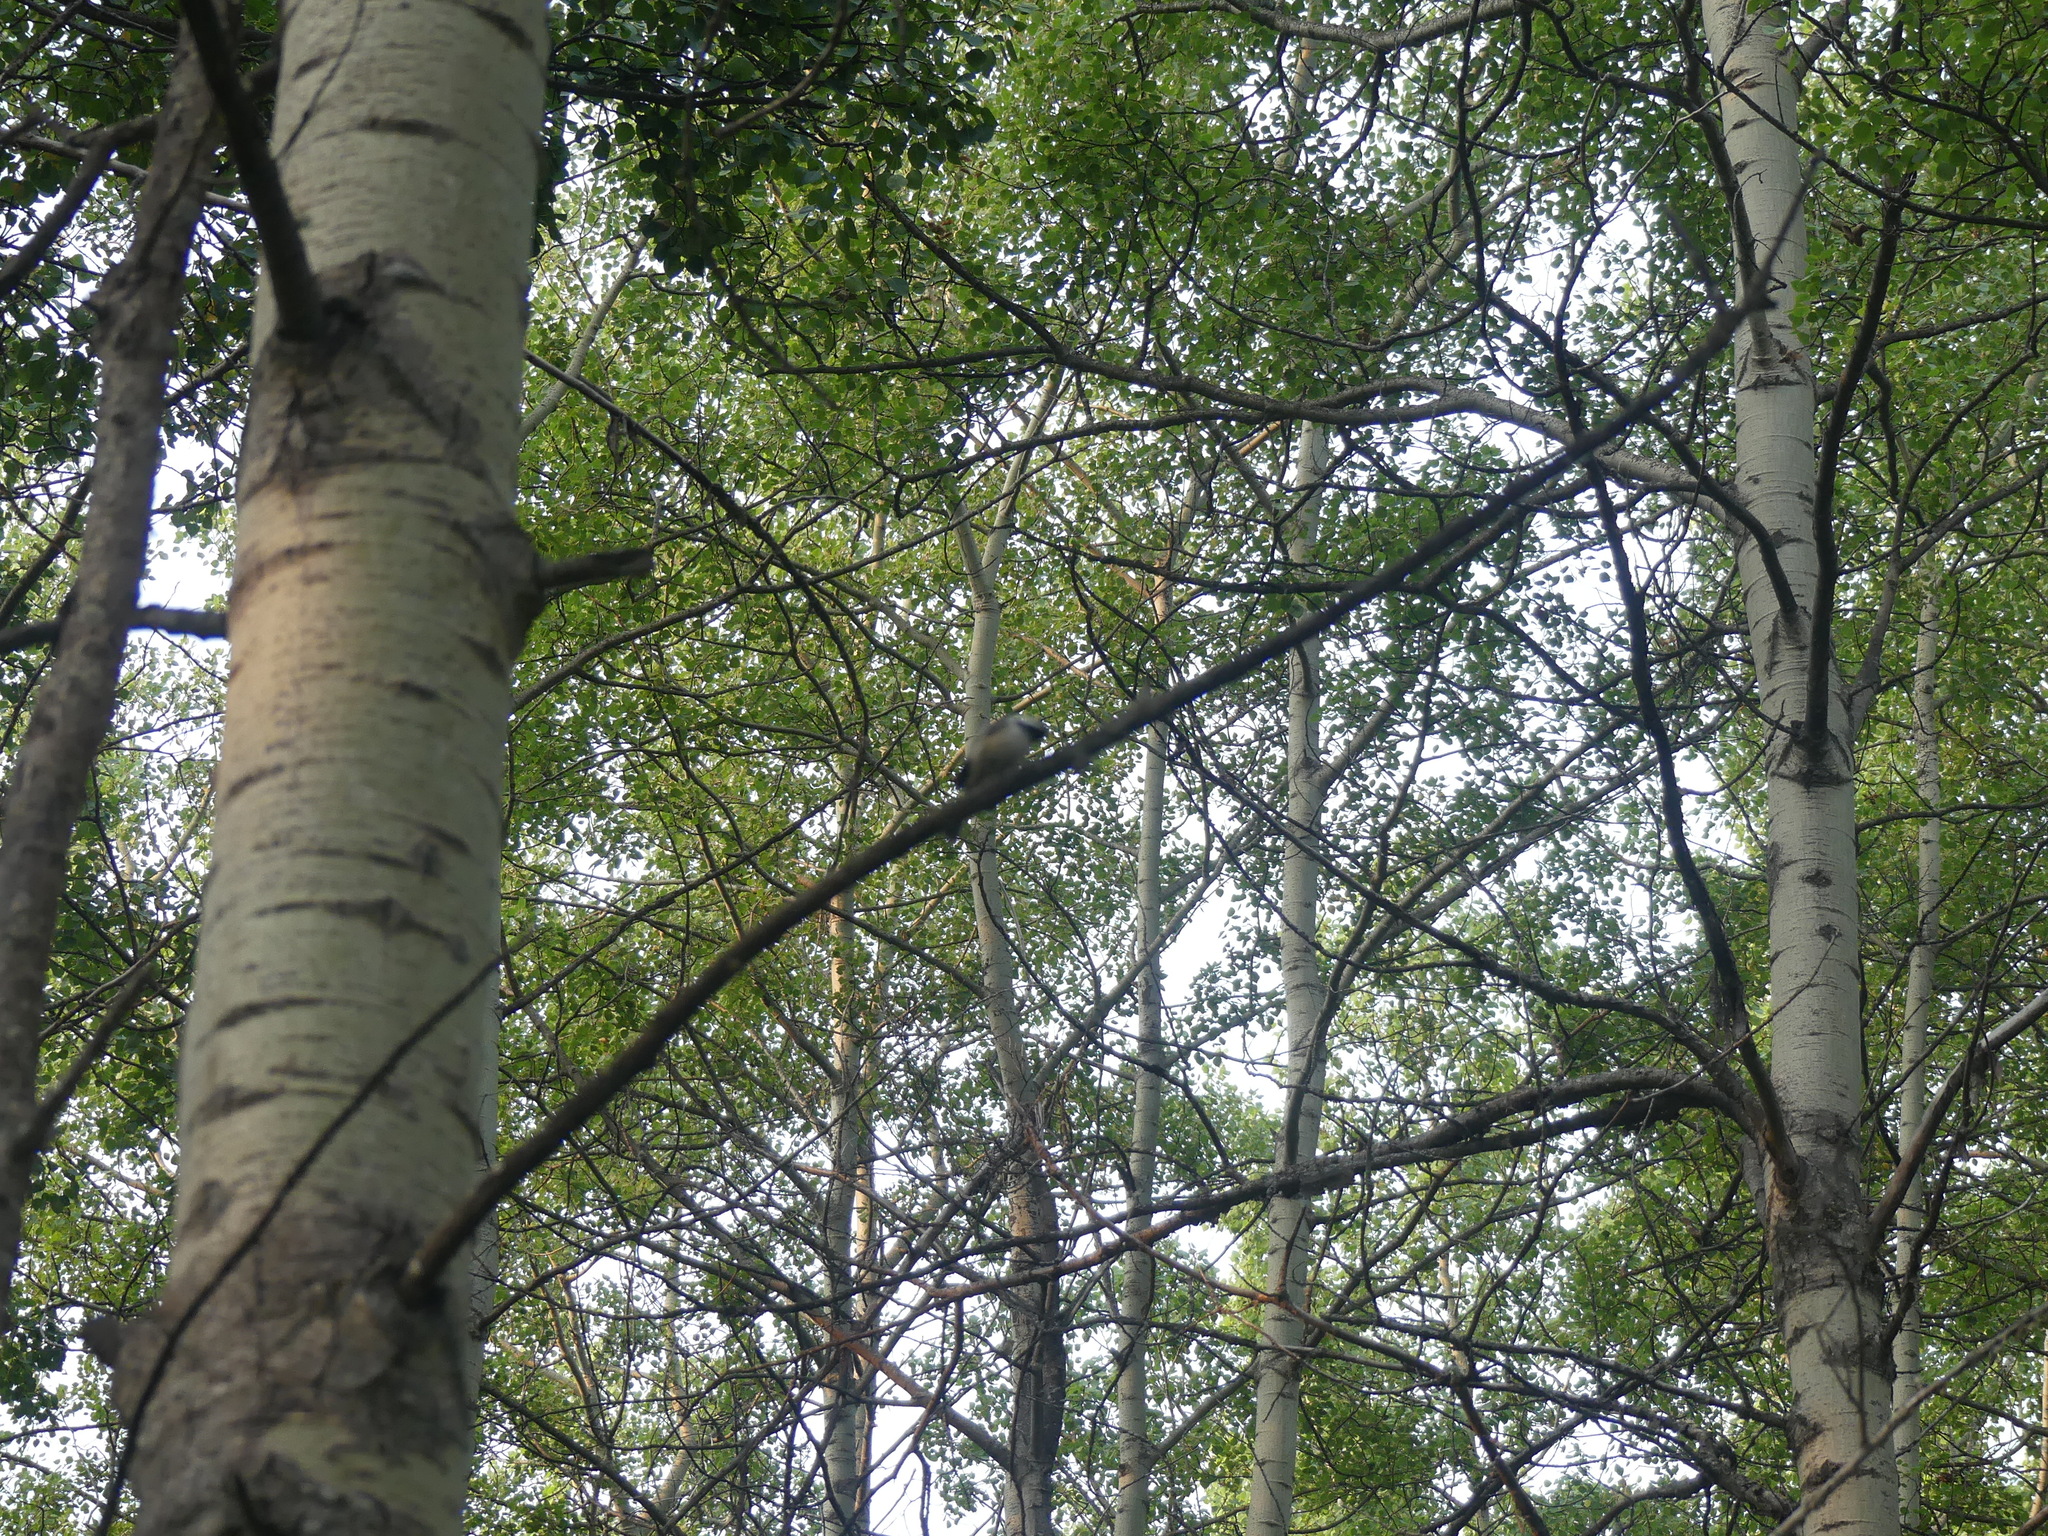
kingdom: Animalia
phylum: Chordata
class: Aves
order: Passeriformes
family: Paridae
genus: Poecile
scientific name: Poecile atricapillus
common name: Black-capped chickadee
